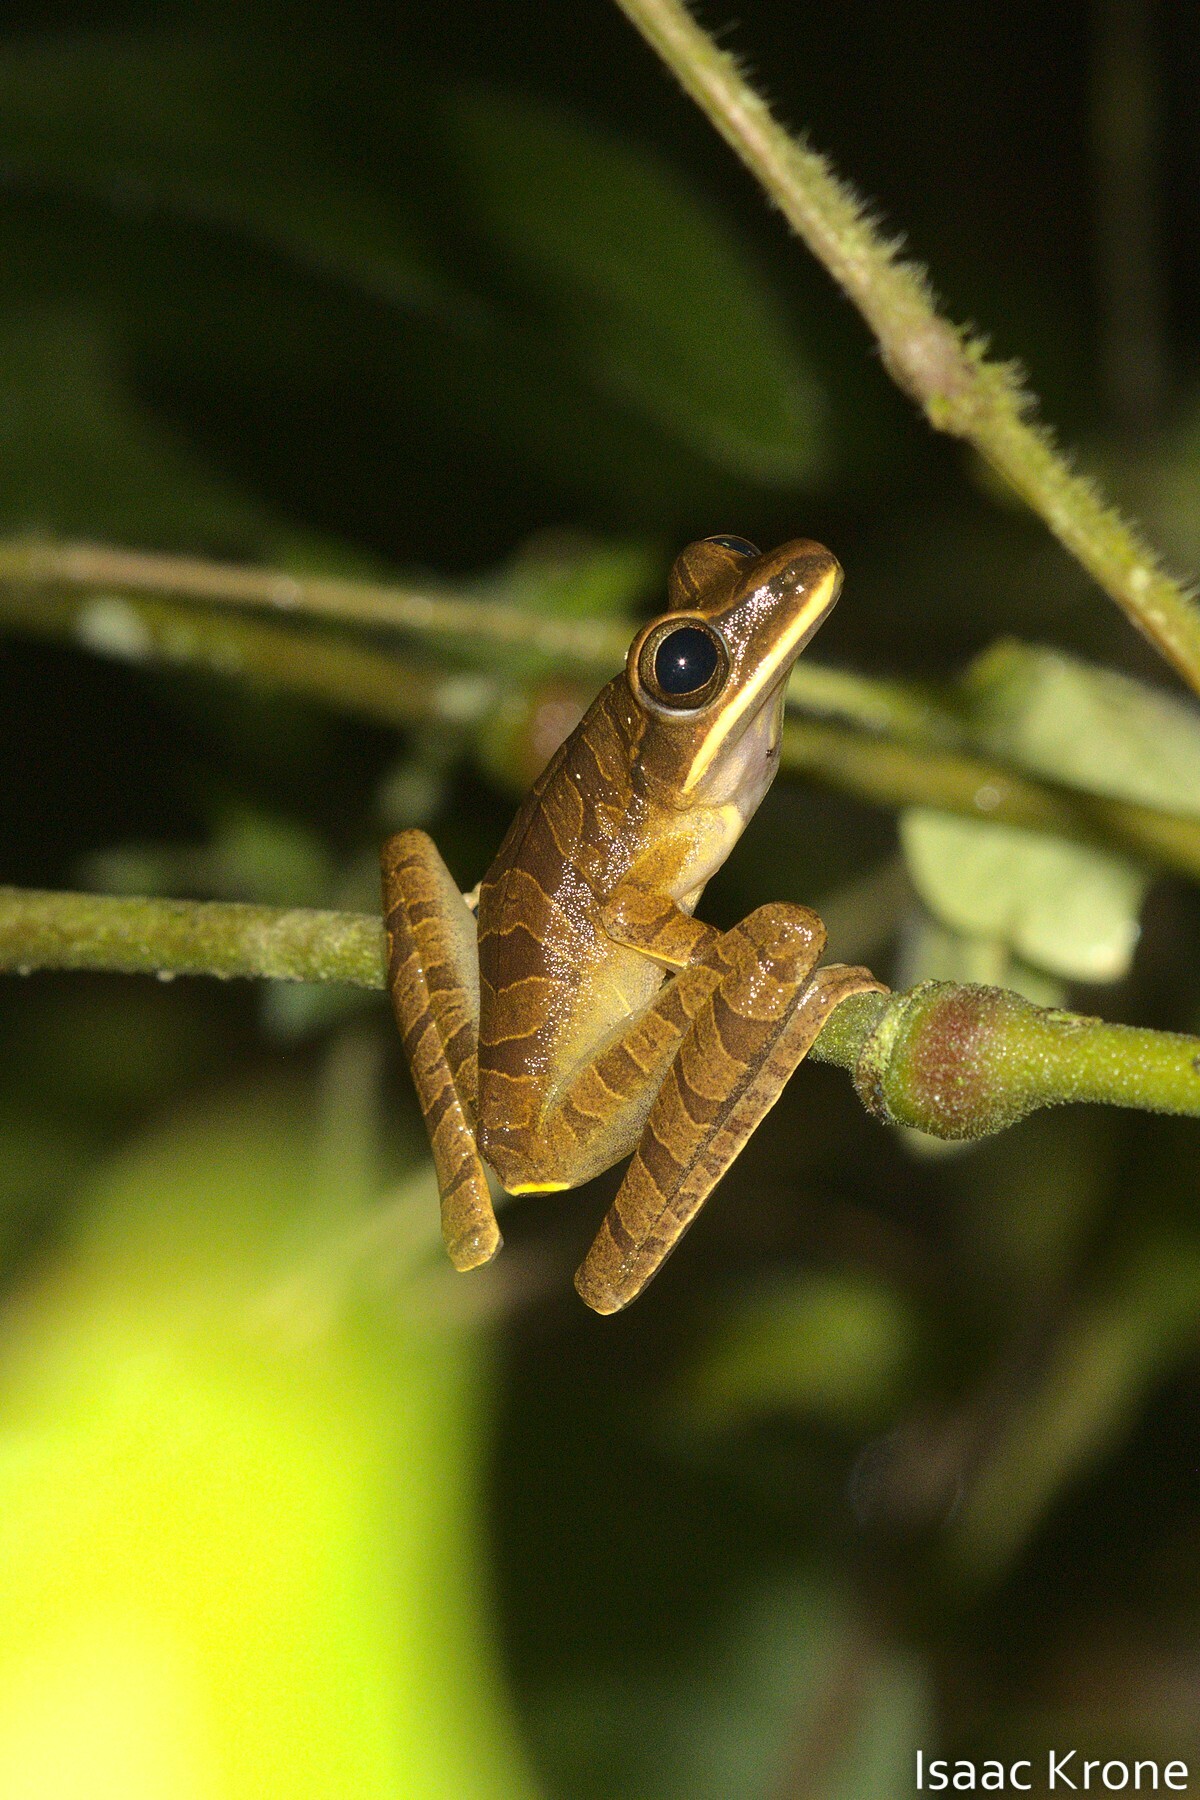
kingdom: Animalia
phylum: Chordata
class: Amphibia
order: Anura
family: Hylidae
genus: Boana
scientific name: Boana lanciformis
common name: Rana lanceolada commún
